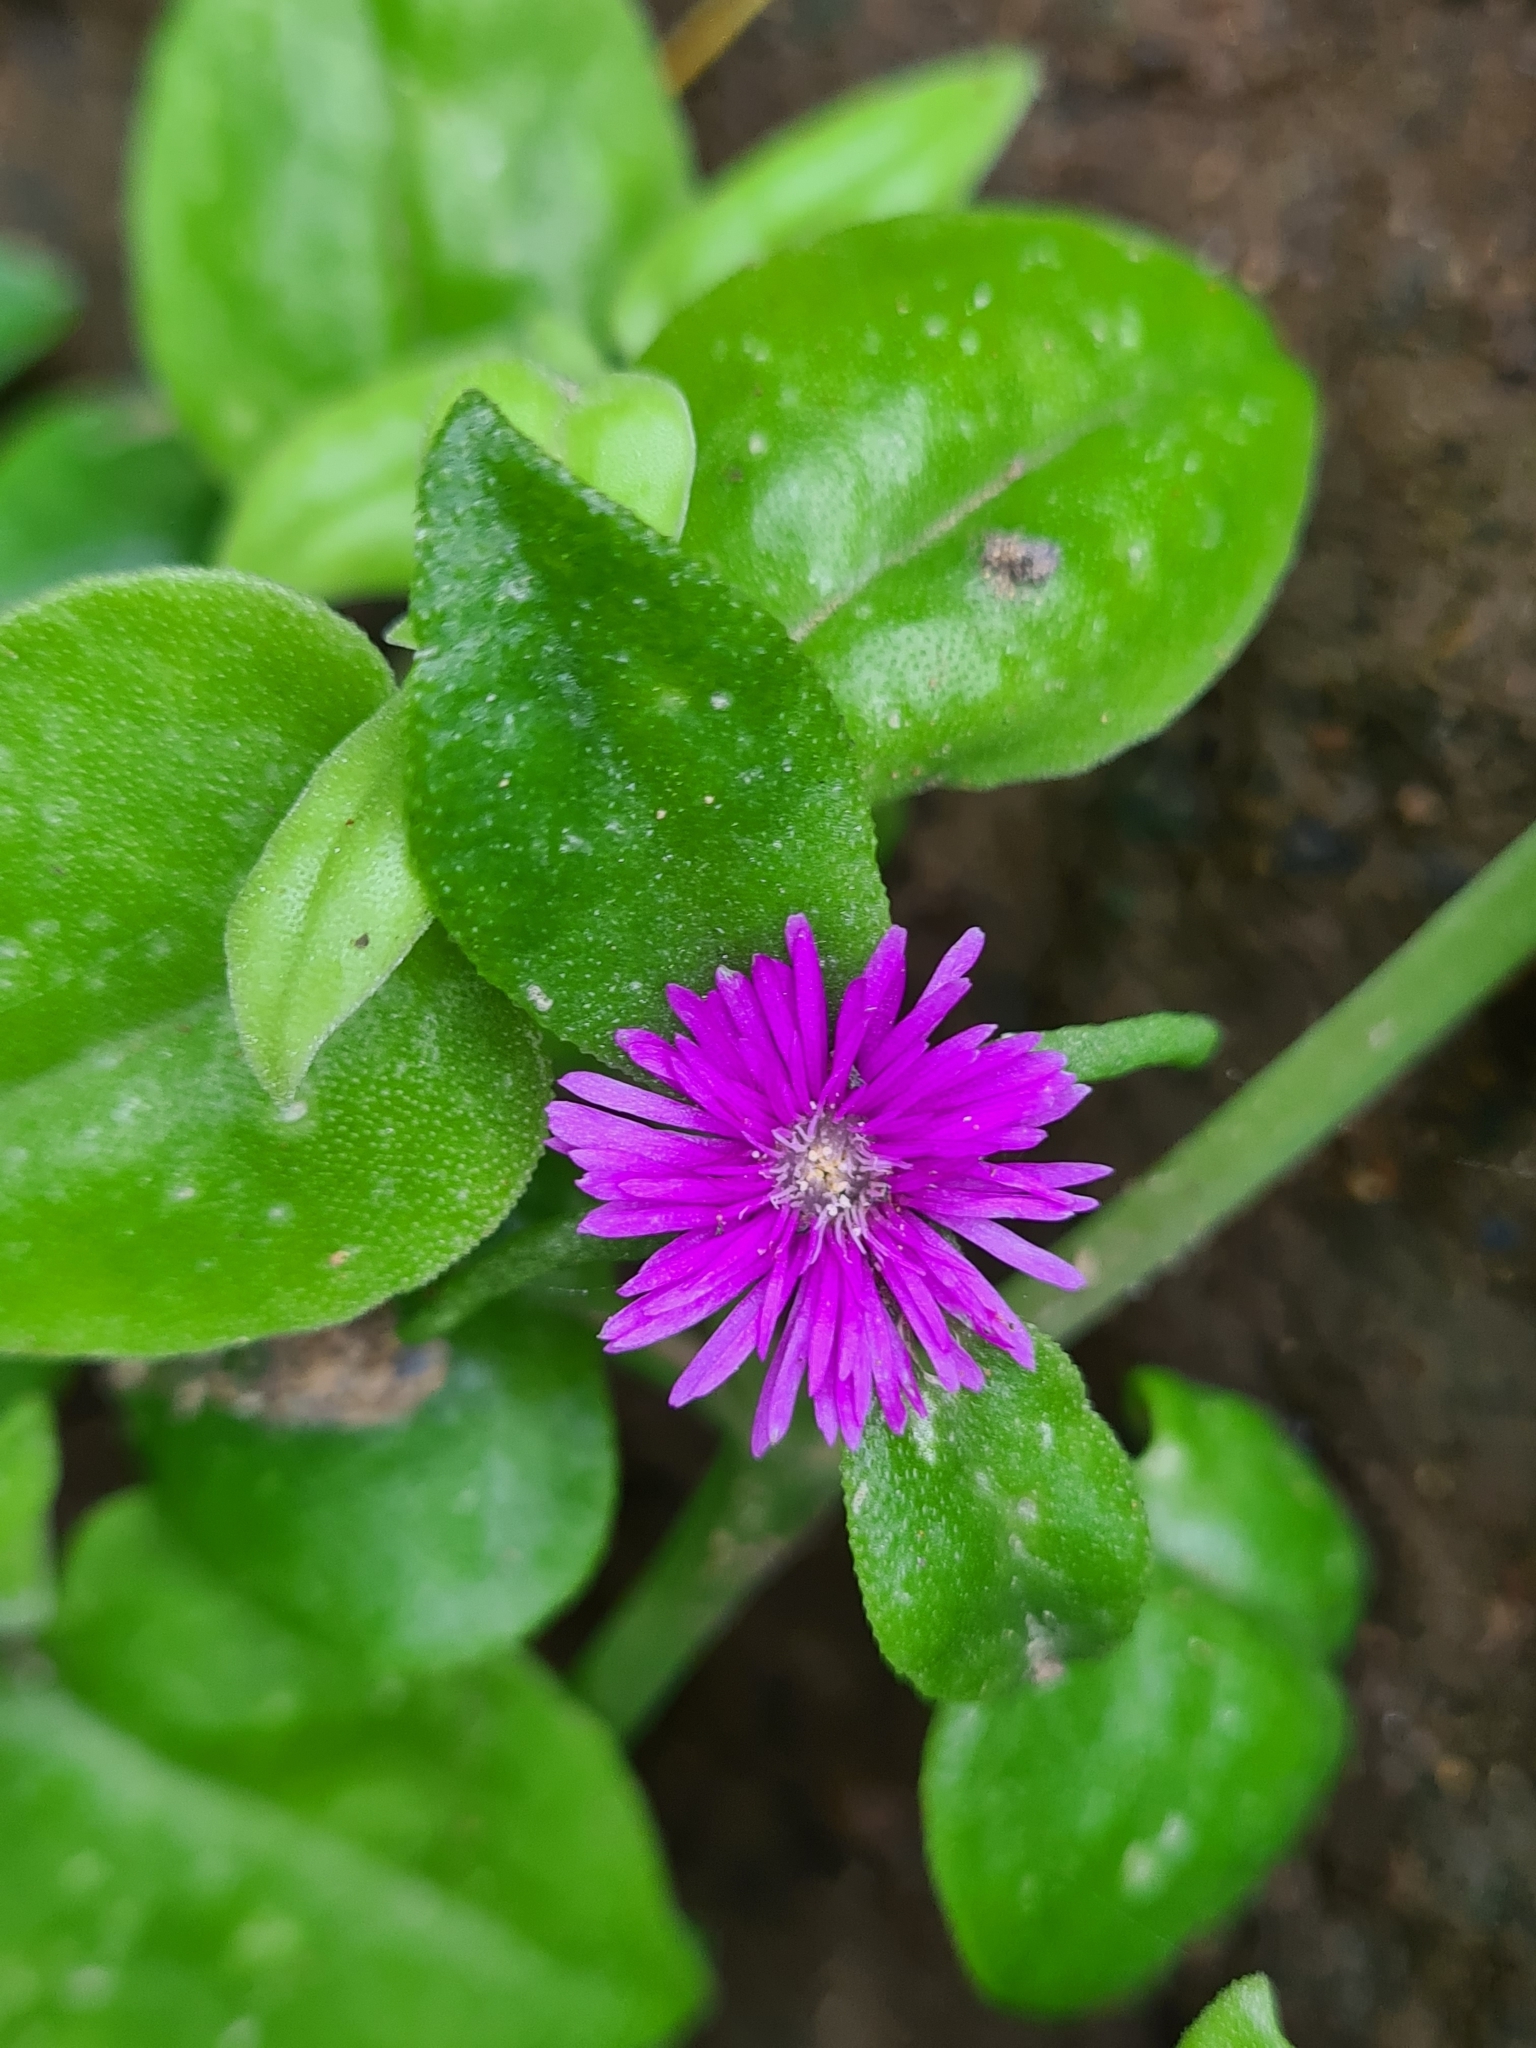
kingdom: Plantae
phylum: Tracheophyta
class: Magnoliopsida
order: Caryophyllales
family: Aizoaceae
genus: Mesembryanthemum
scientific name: Mesembryanthemum cordifolium
